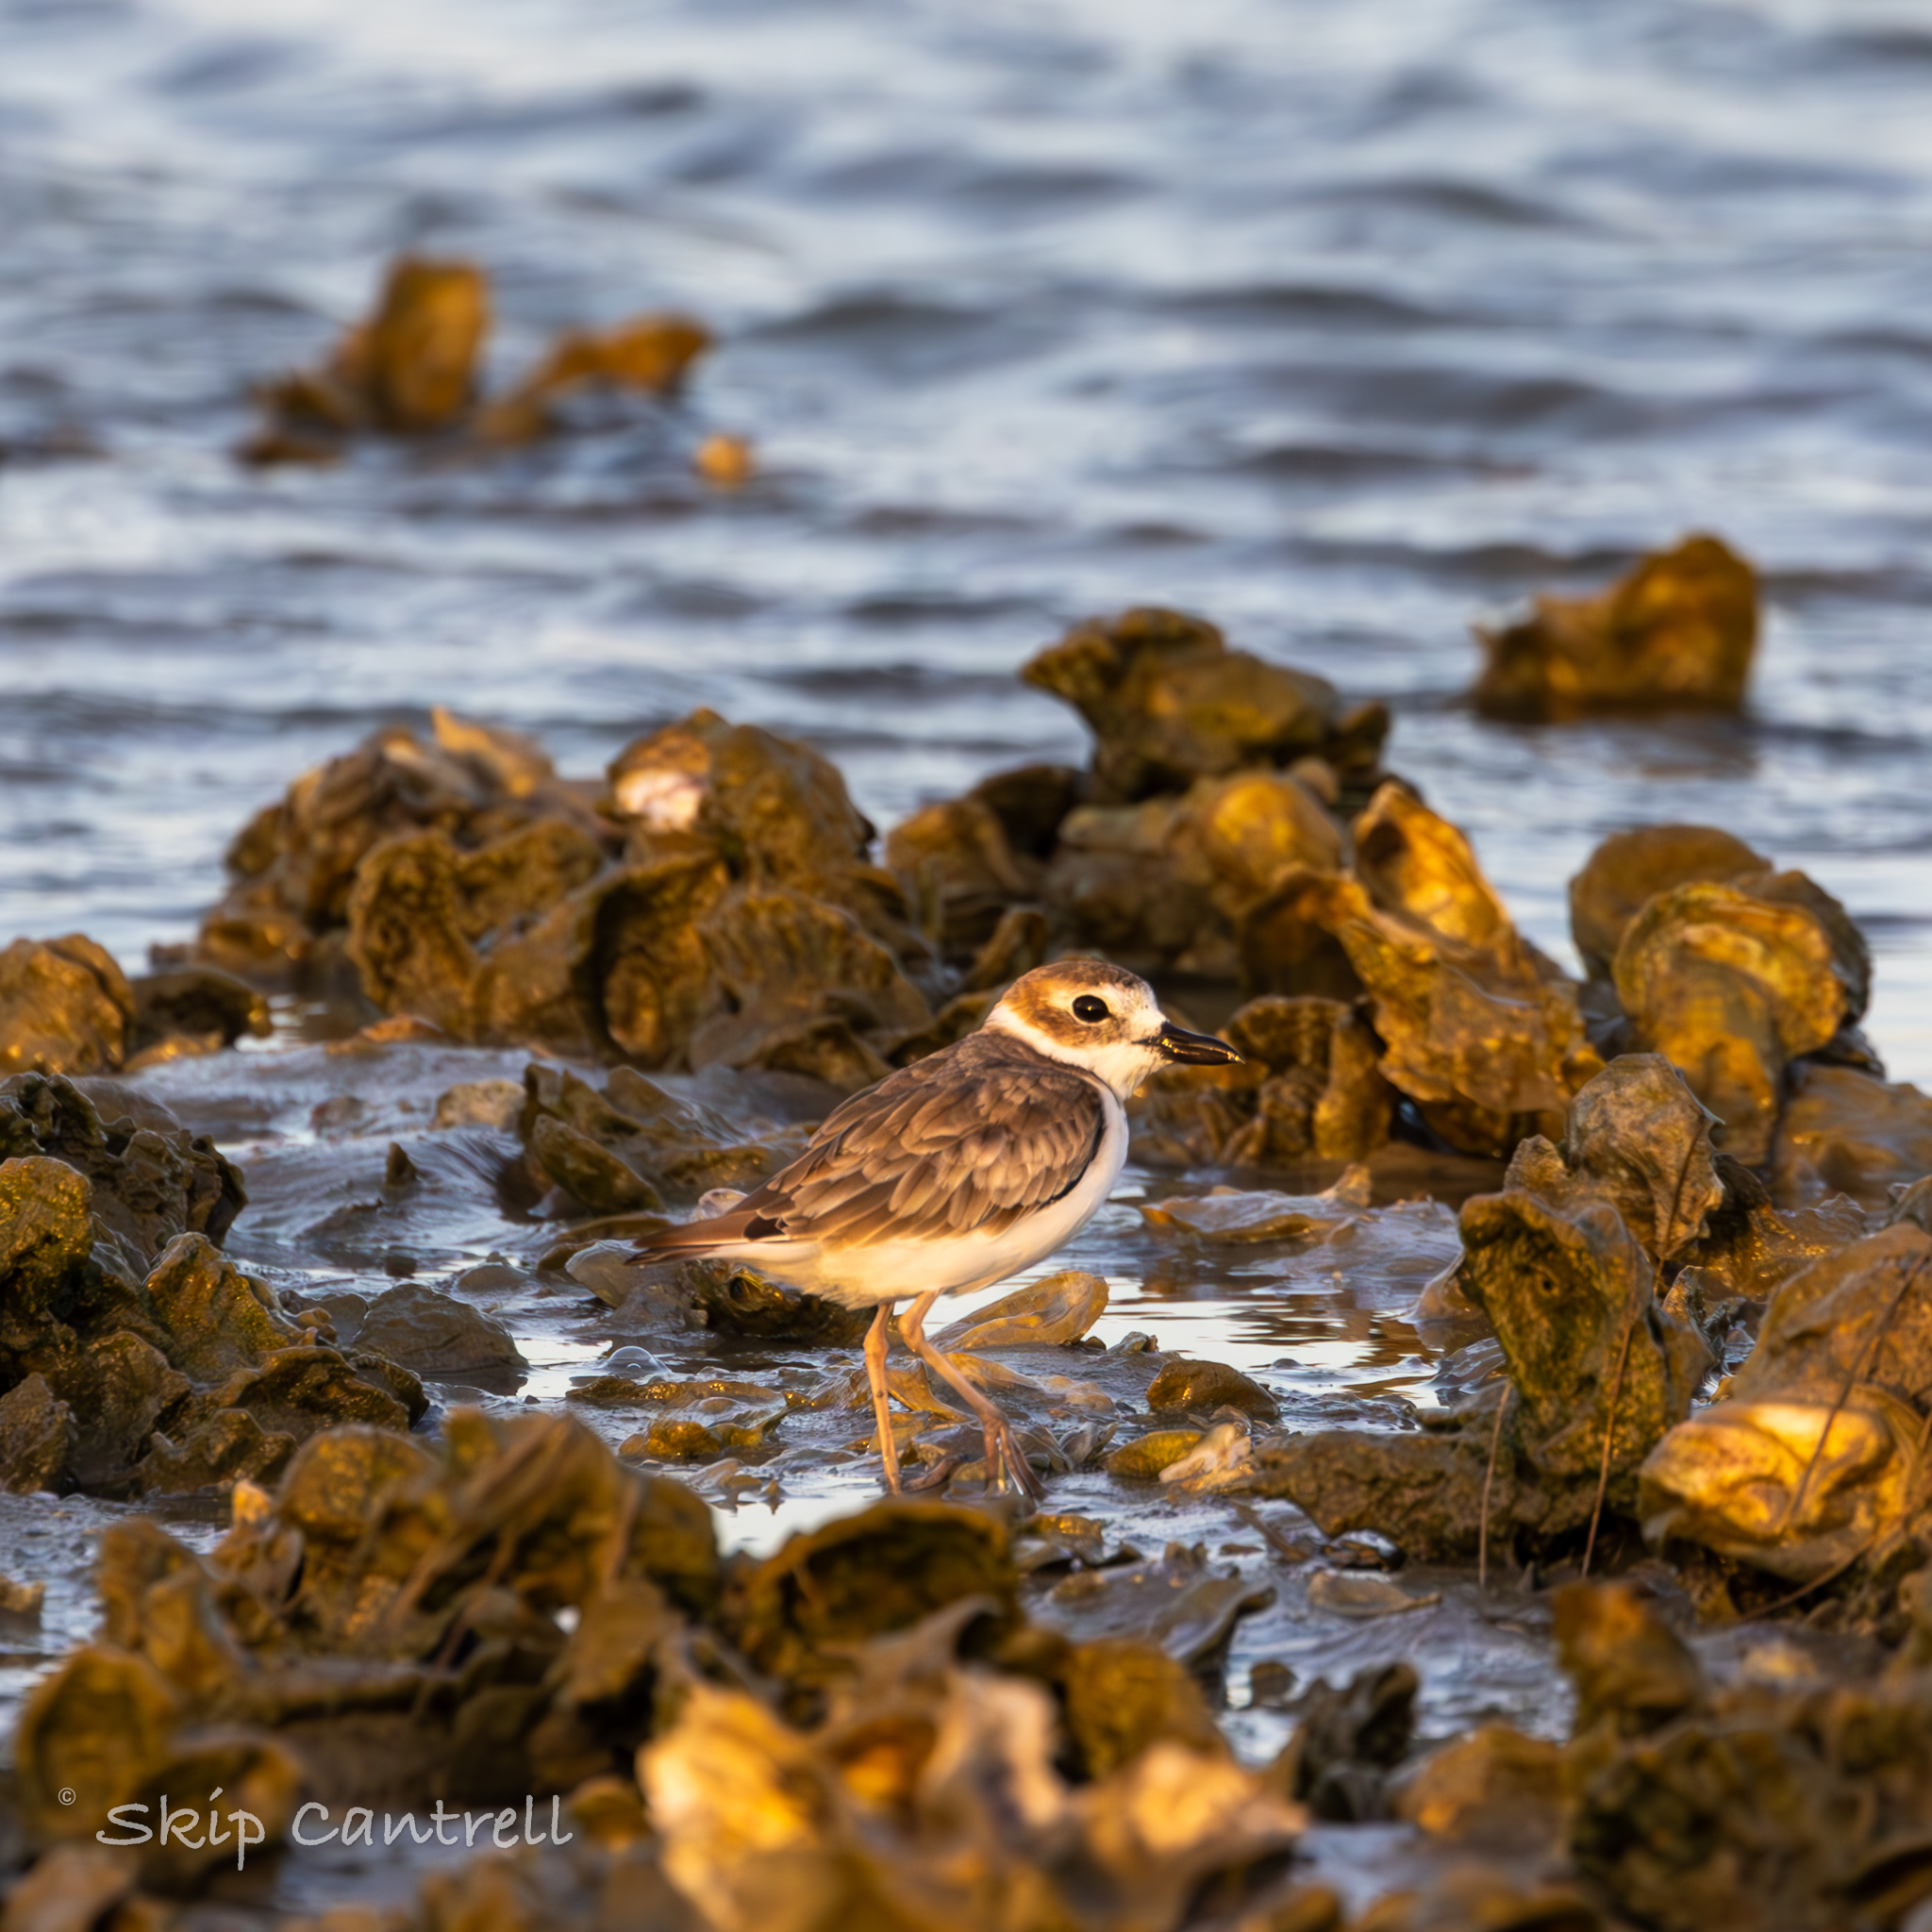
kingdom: Animalia
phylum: Chordata
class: Aves
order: Charadriiformes
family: Charadriidae
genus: Anarhynchus
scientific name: Anarhynchus
